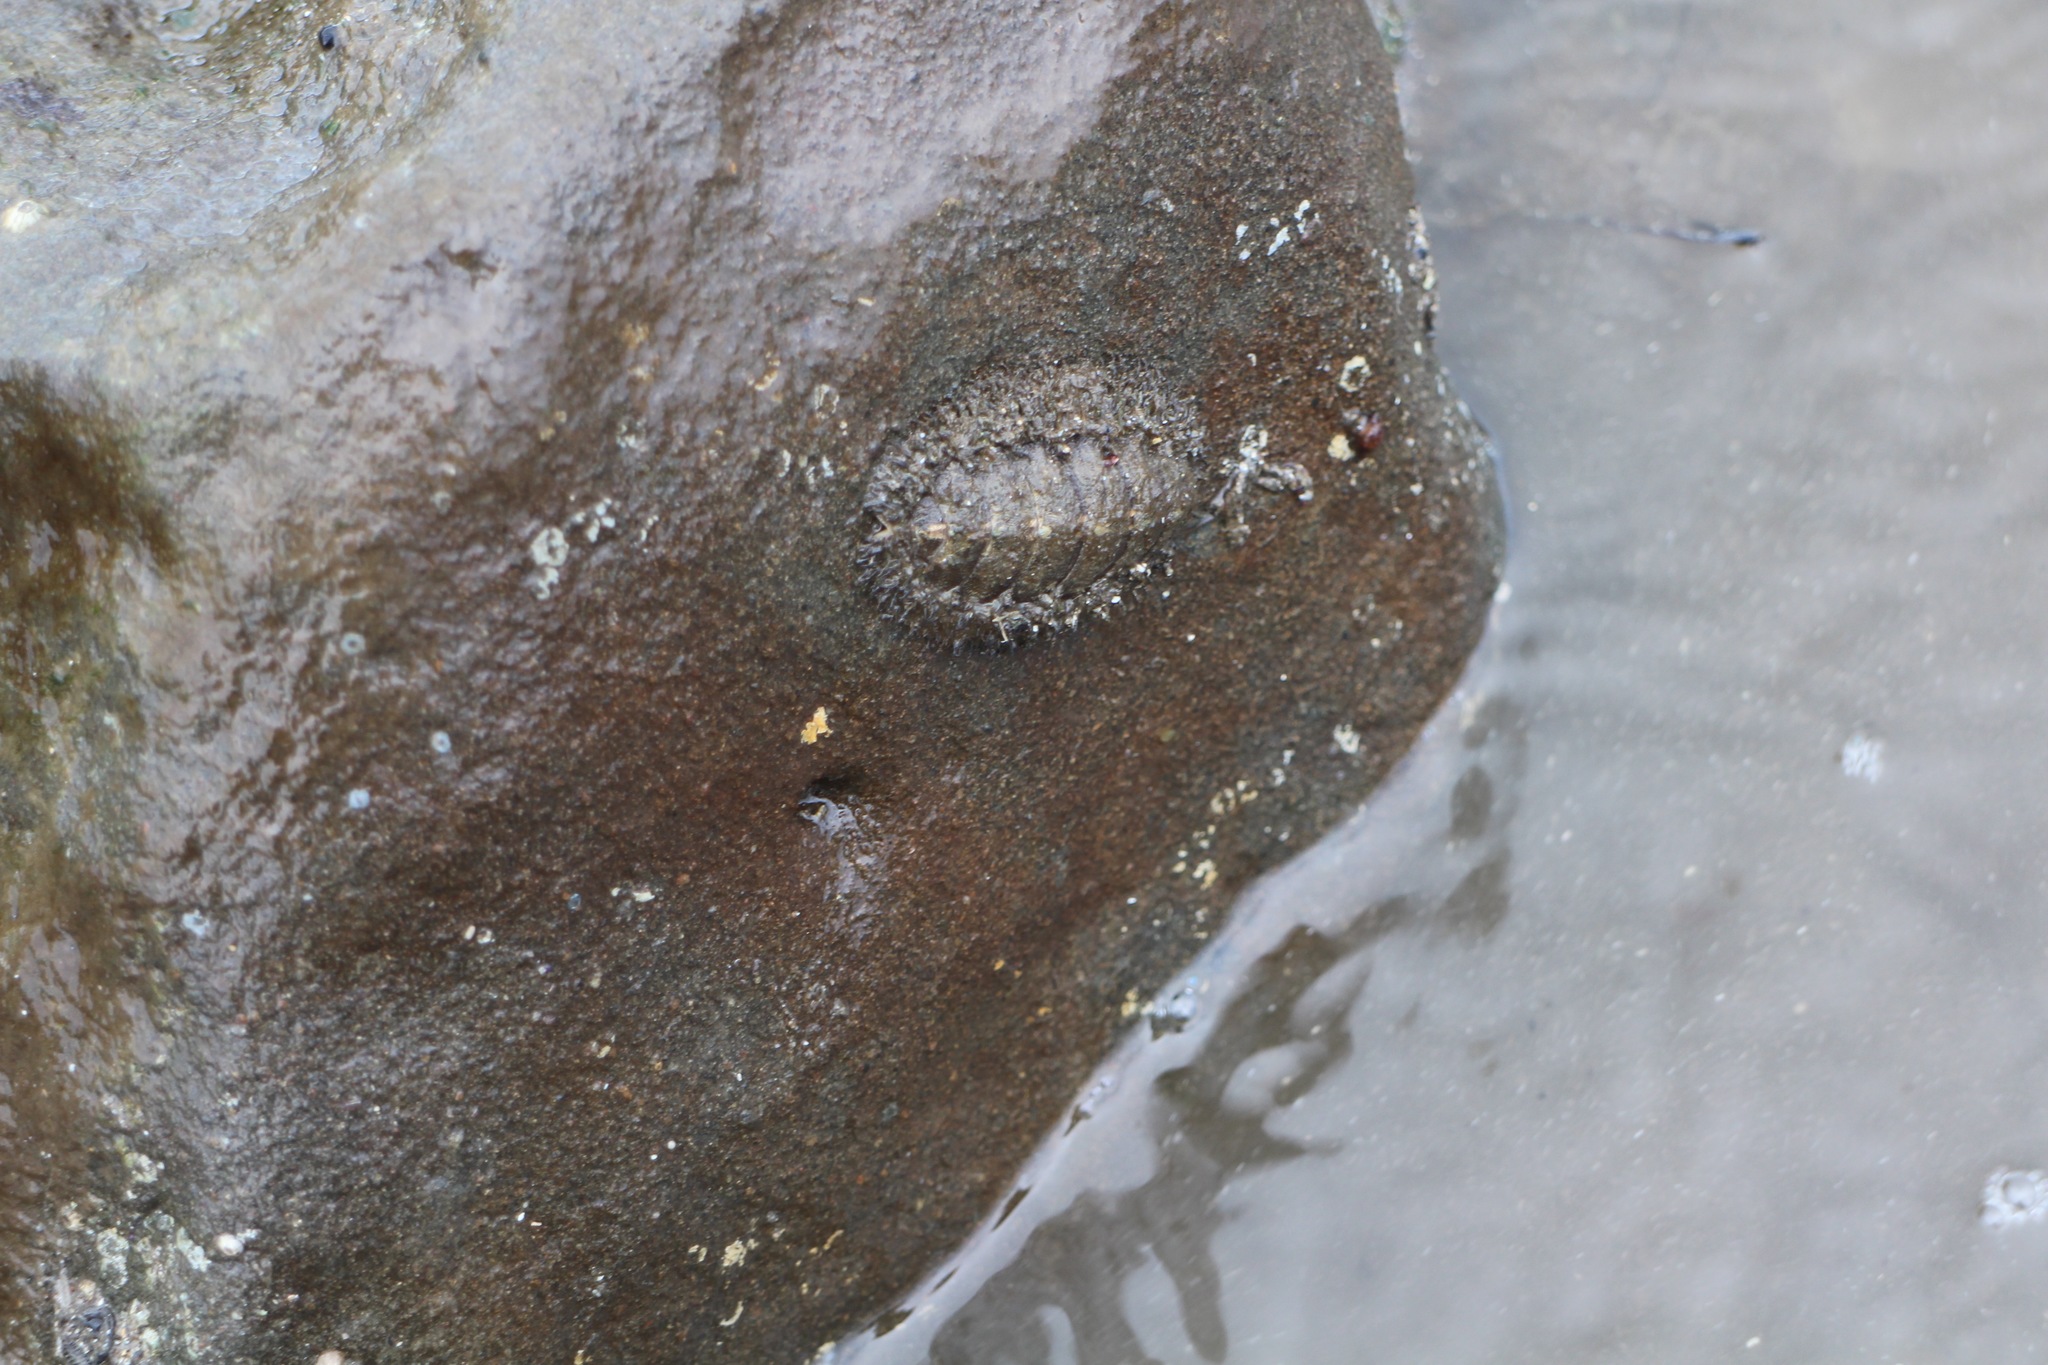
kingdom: Animalia
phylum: Mollusca
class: Polyplacophora
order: Chitonida
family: Mopaliidae
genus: Mopalia
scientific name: Mopalia muscosa
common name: Mossy chiton
